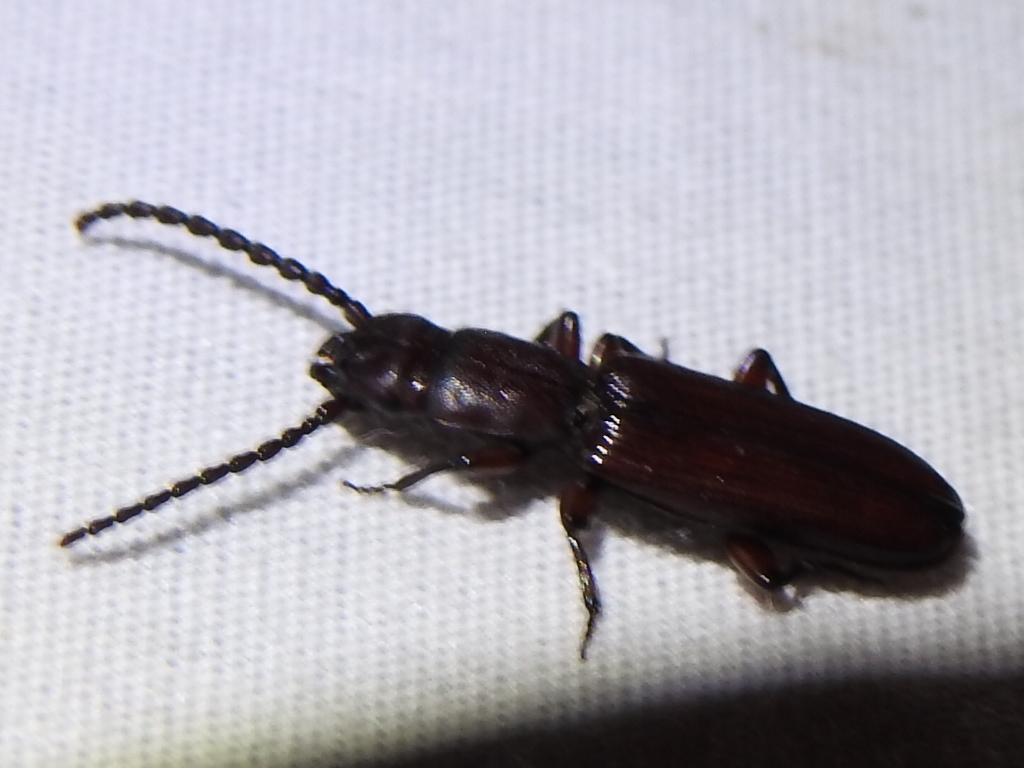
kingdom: Animalia
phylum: Arthropoda
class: Insecta
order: Coleoptera
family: Passandridae
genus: Catogenus
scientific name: Catogenus rufus
